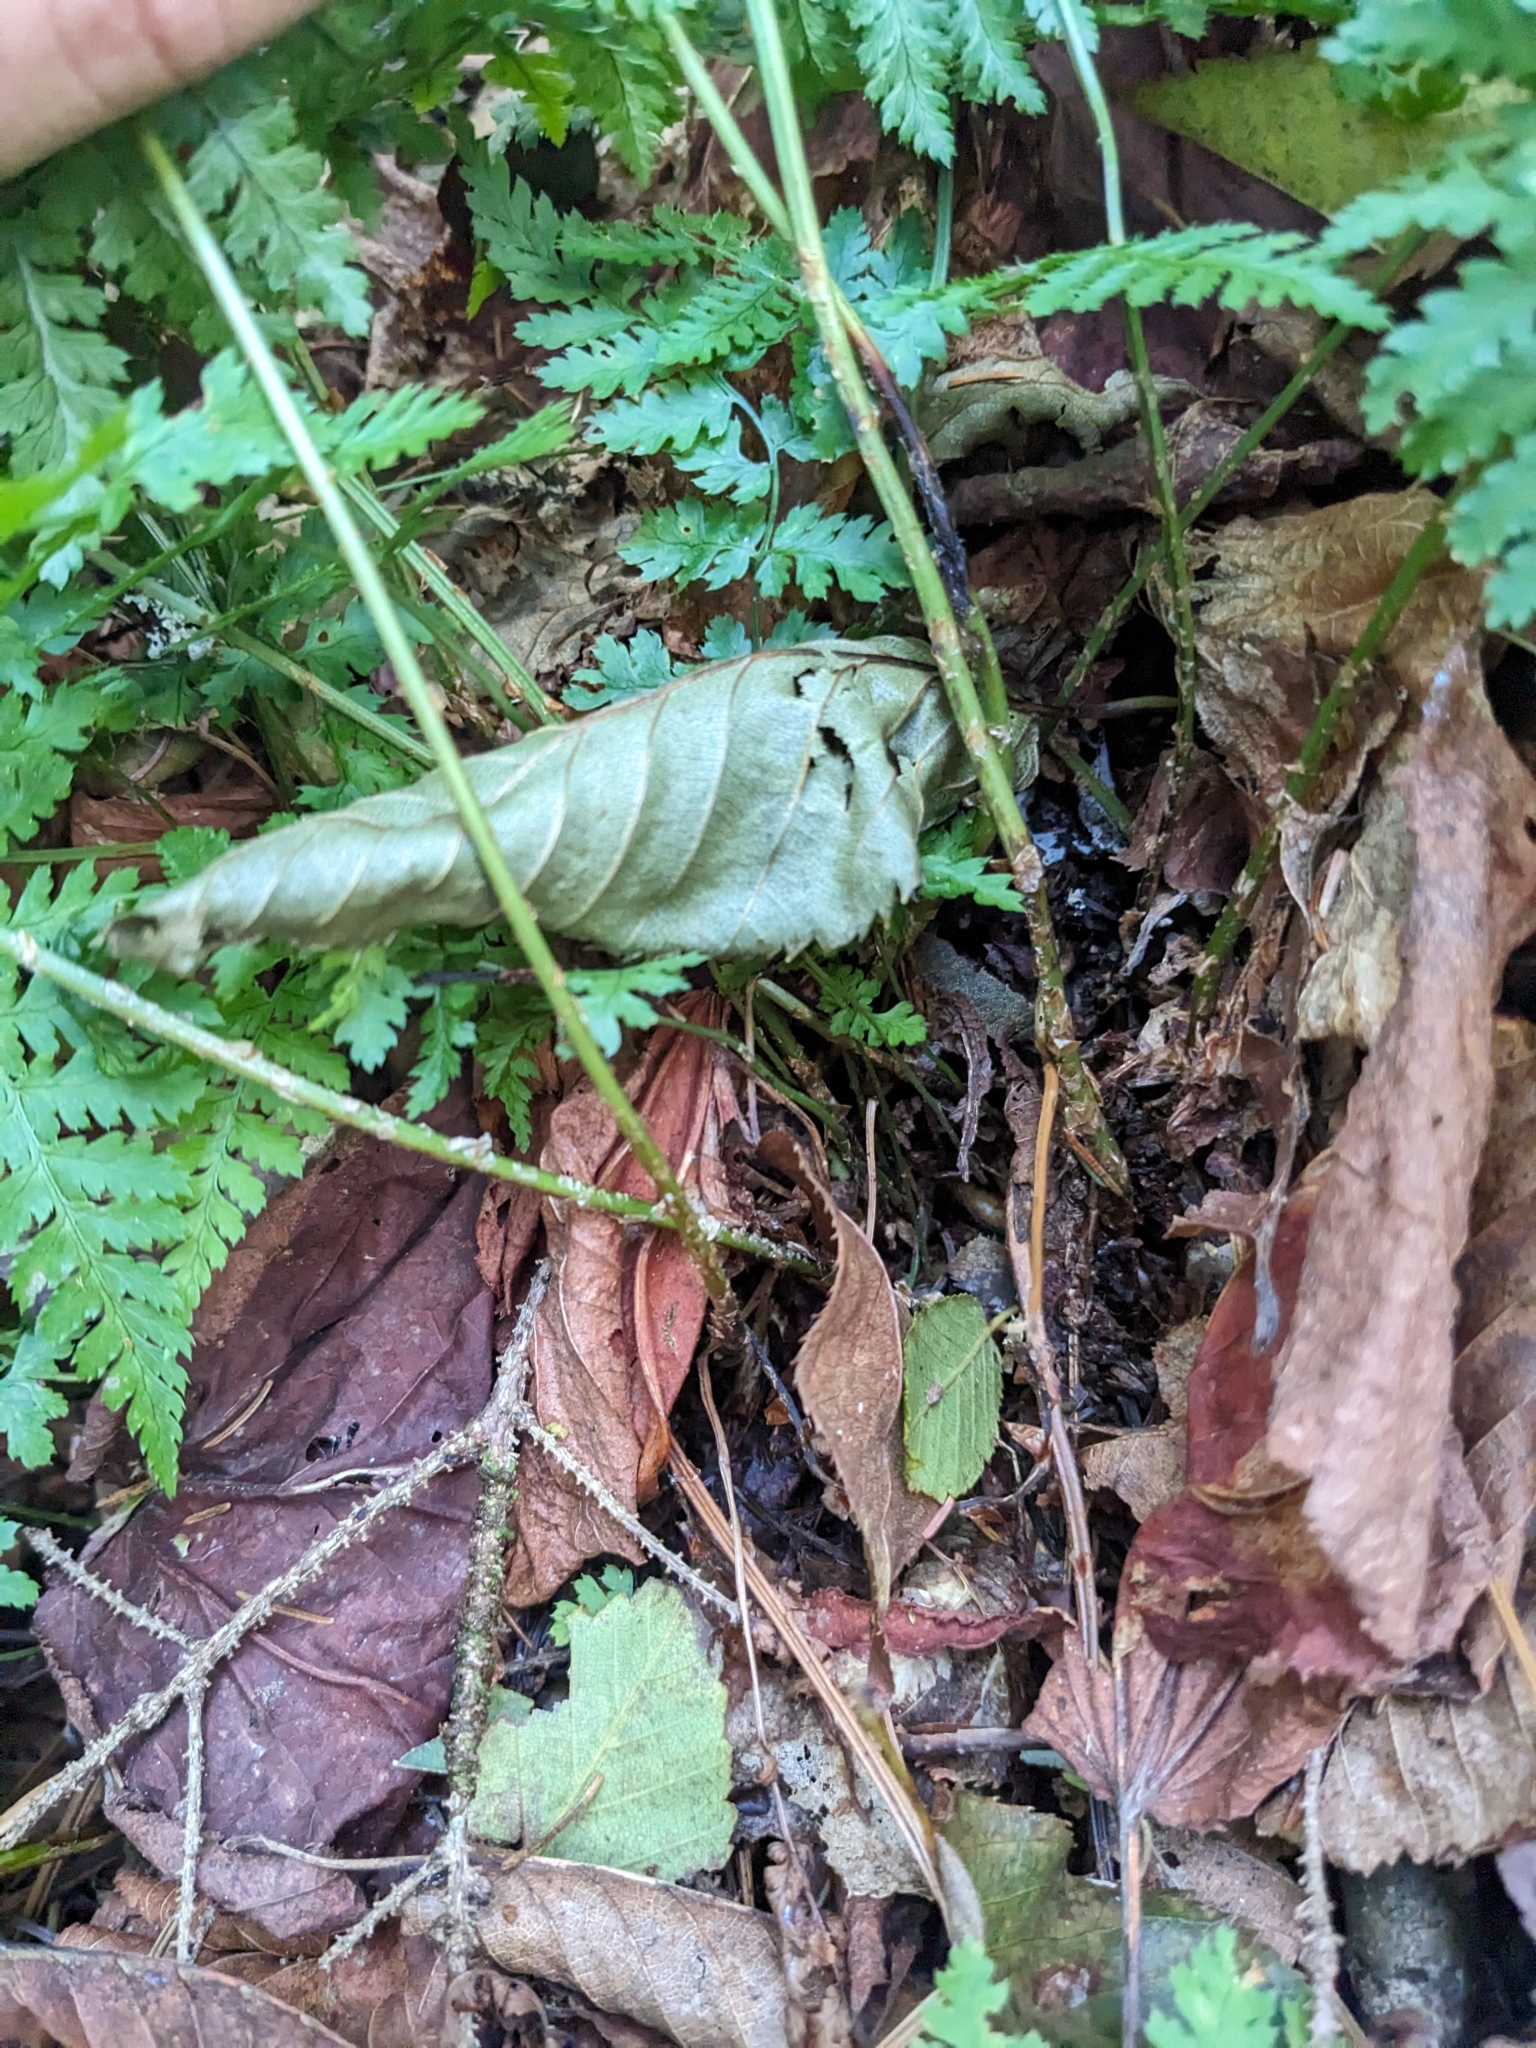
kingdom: Plantae
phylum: Tracheophyta
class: Polypodiopsida
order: Polypodiales
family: Dryopteridaceae
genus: Dryopteris
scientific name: Dryopteris intermedia
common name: Evergreen wood fern
